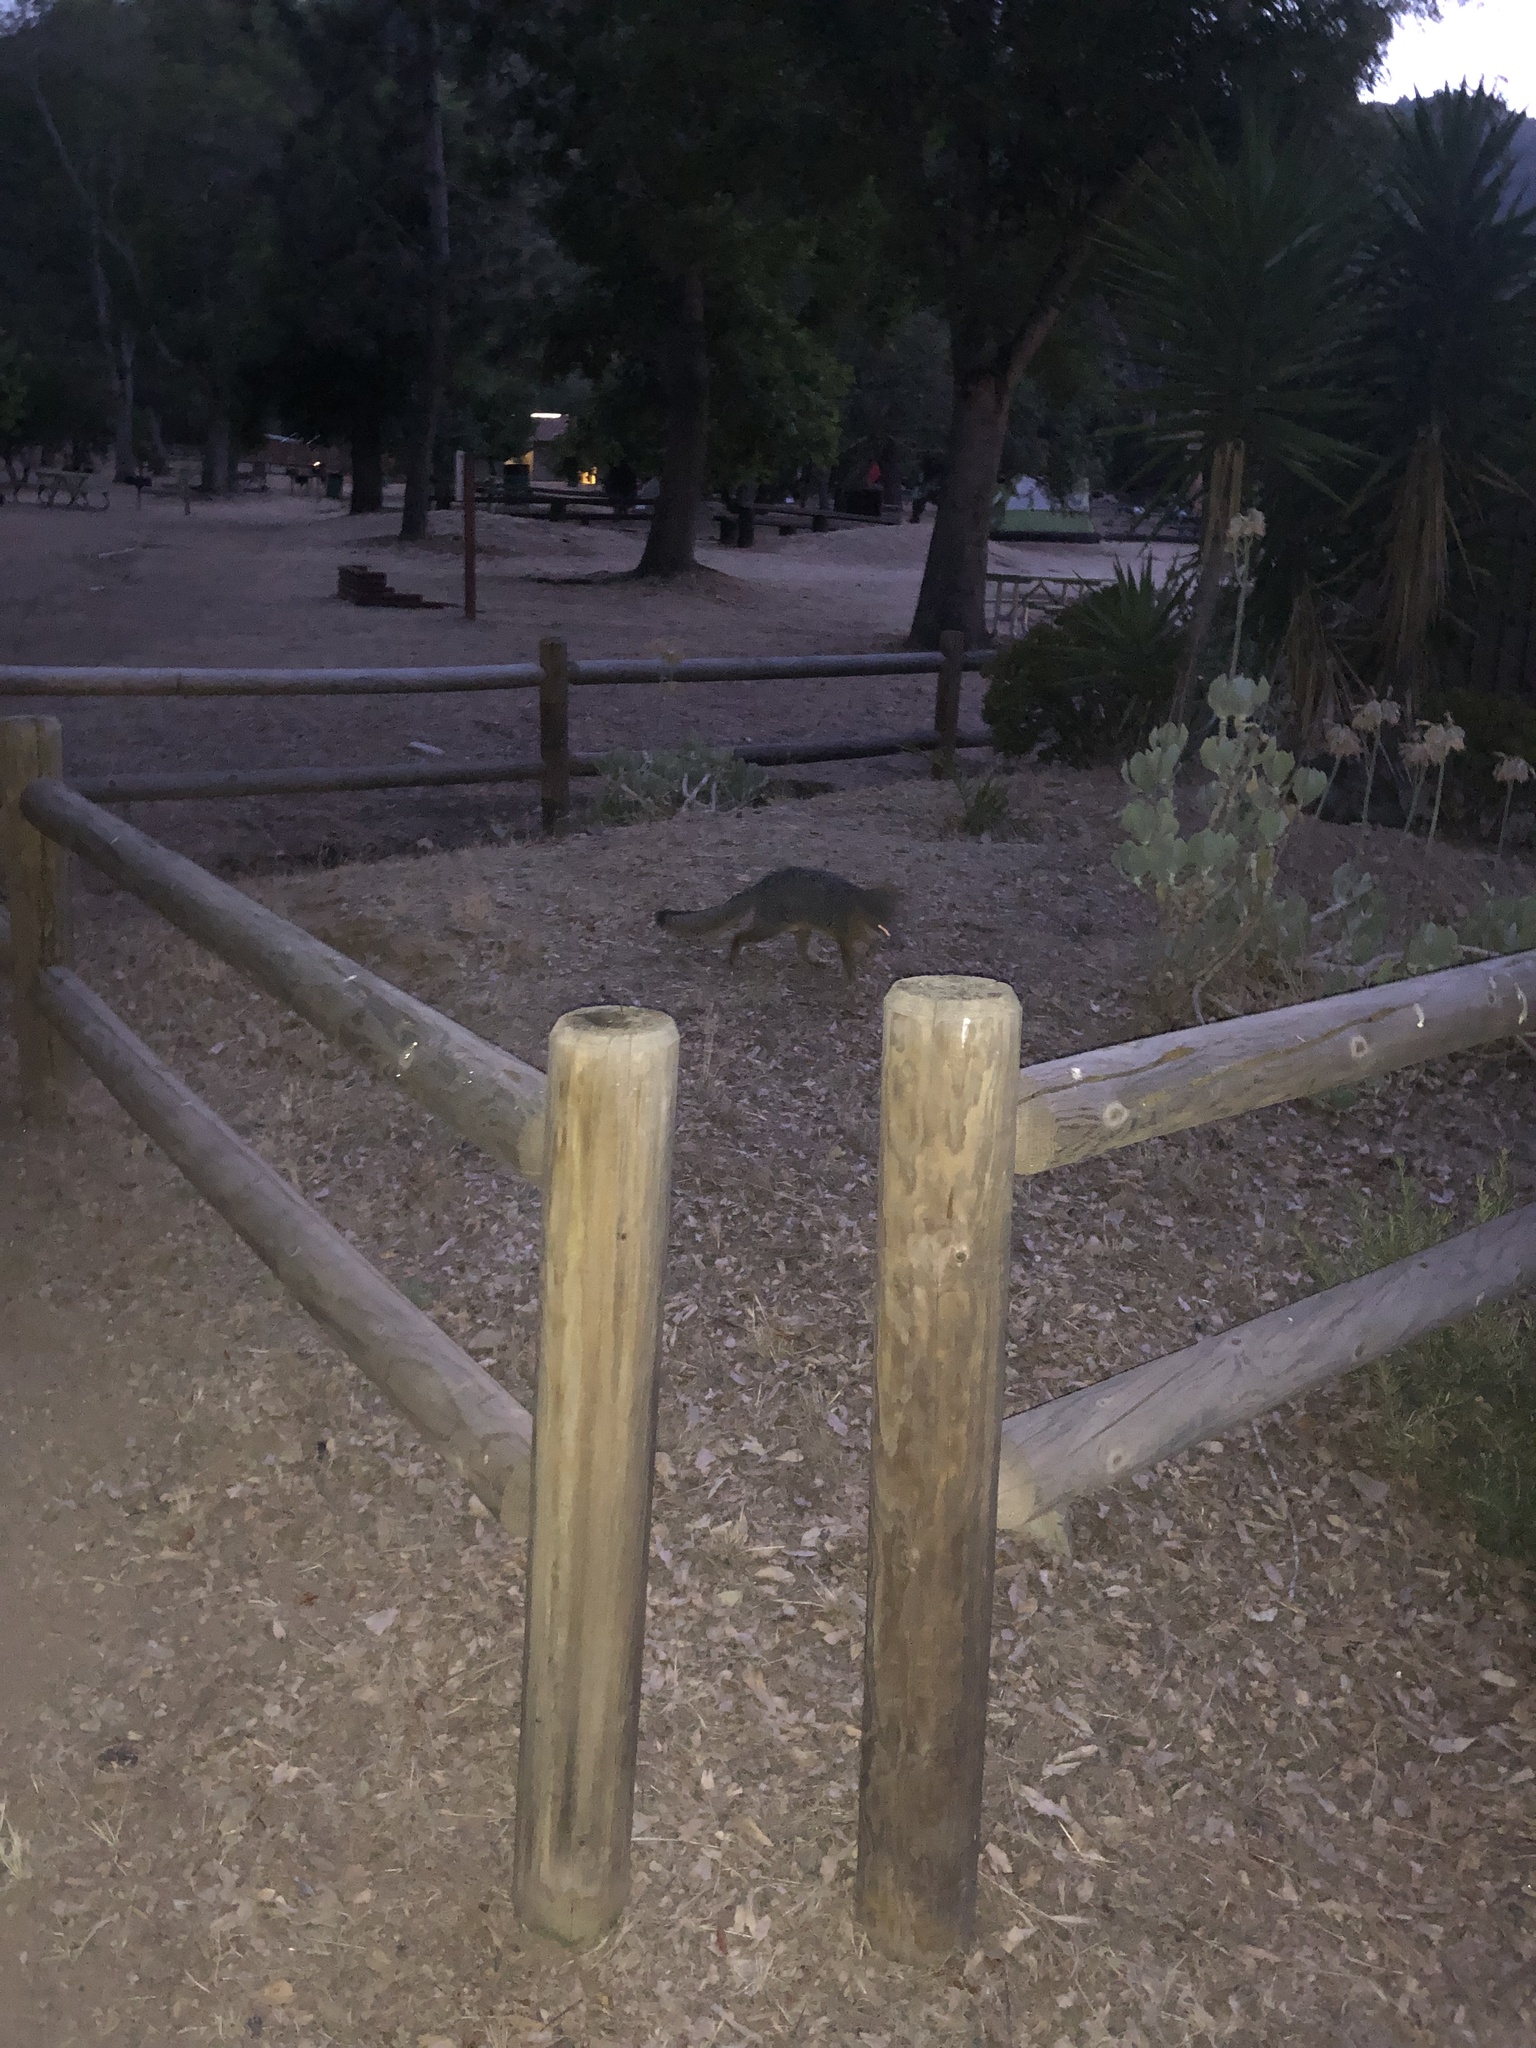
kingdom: Animalia
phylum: Chordata
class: Mammalia
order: Carnivora
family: Canidae
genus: Urocyon
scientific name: Urocyon littoralis
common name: Island gray fox
